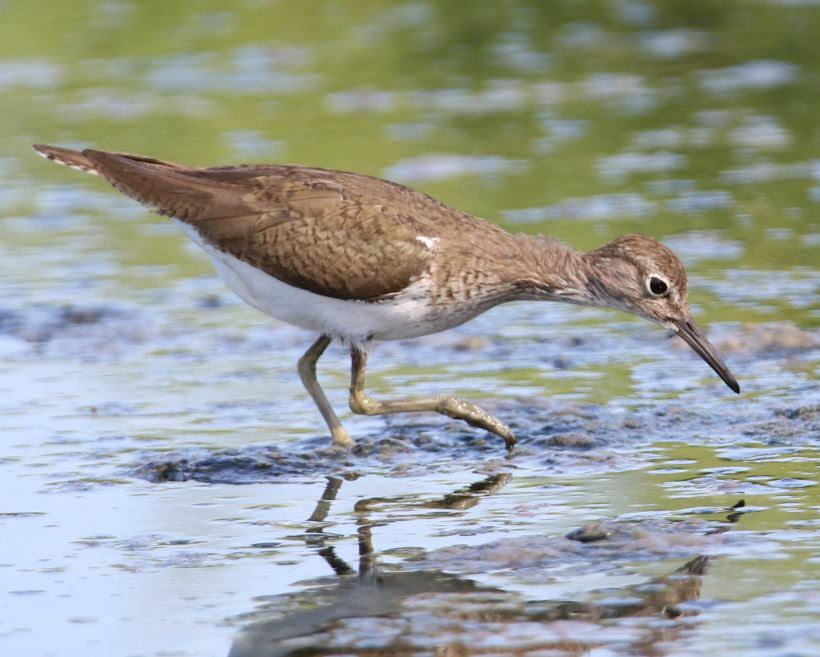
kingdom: Animalia
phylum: Chordata
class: Aves
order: Charadriiformes
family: Scolopacidae
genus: Actitis
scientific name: Actitis hypoleucos
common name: Common sandpiper
